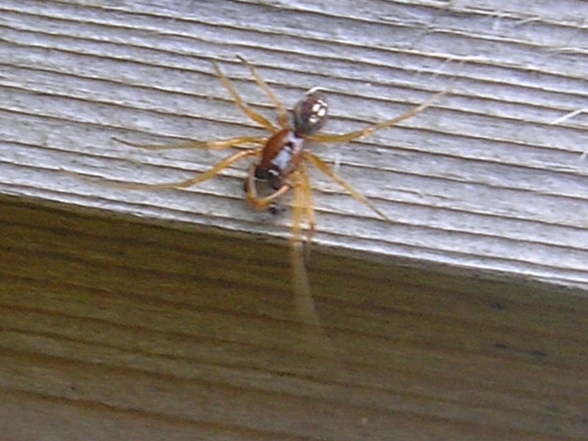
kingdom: Animalia
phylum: Arthropoda
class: Arachnida
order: Araneae
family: Tetragnathidae
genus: Pachygnatha
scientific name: Pachygnatha degeeri
